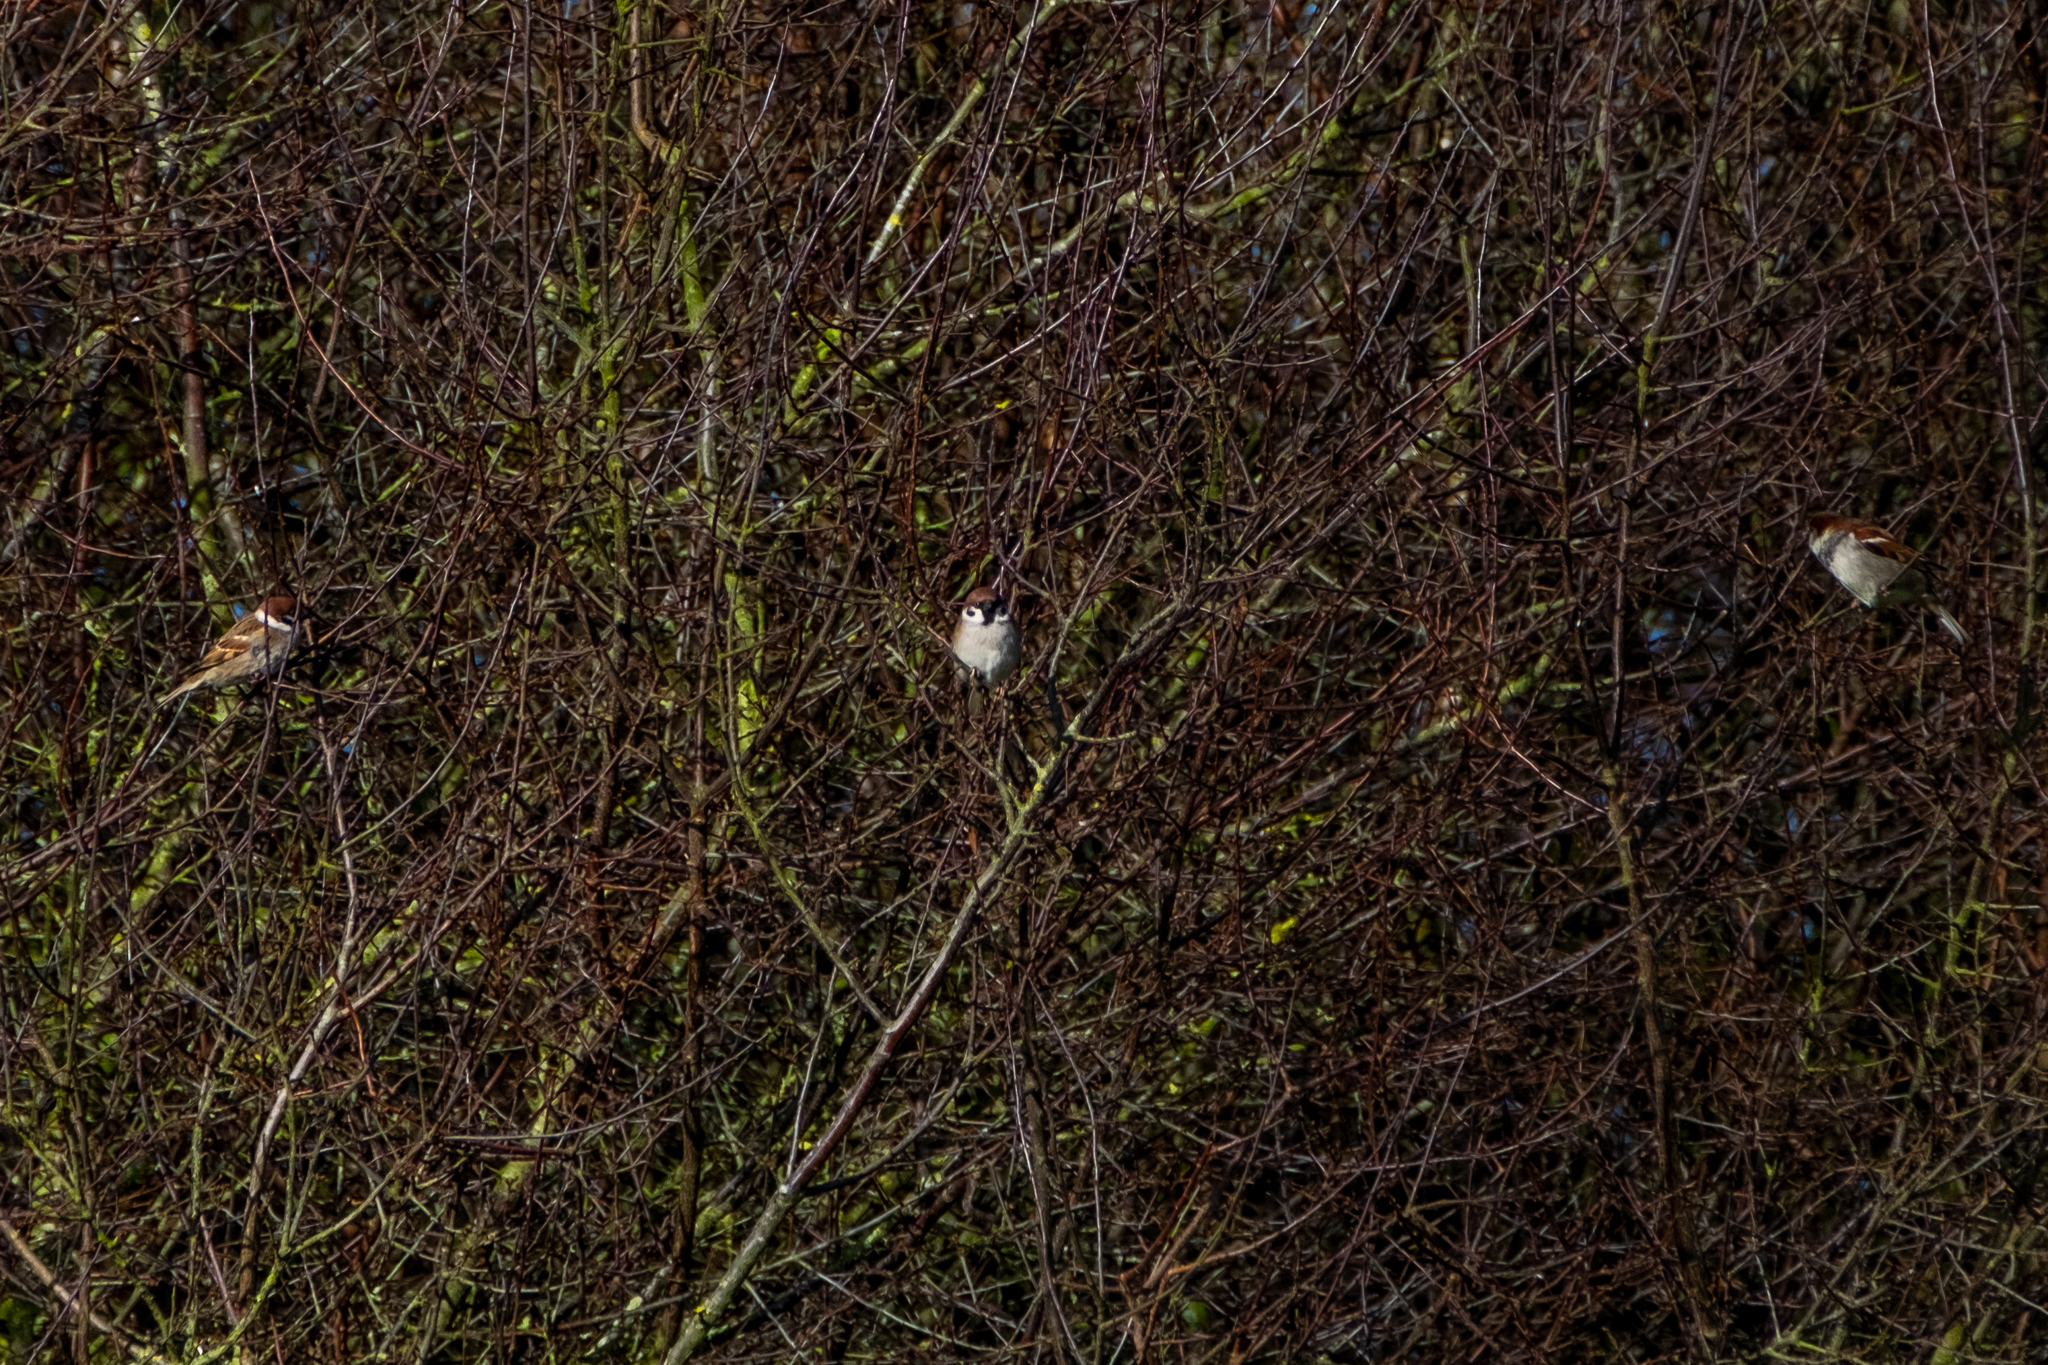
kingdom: Animalia
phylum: Chordata
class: Aves
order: Passeriformes
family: Passeridae
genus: Passer
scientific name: Passer montanus
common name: Eurasian tree sparrow
